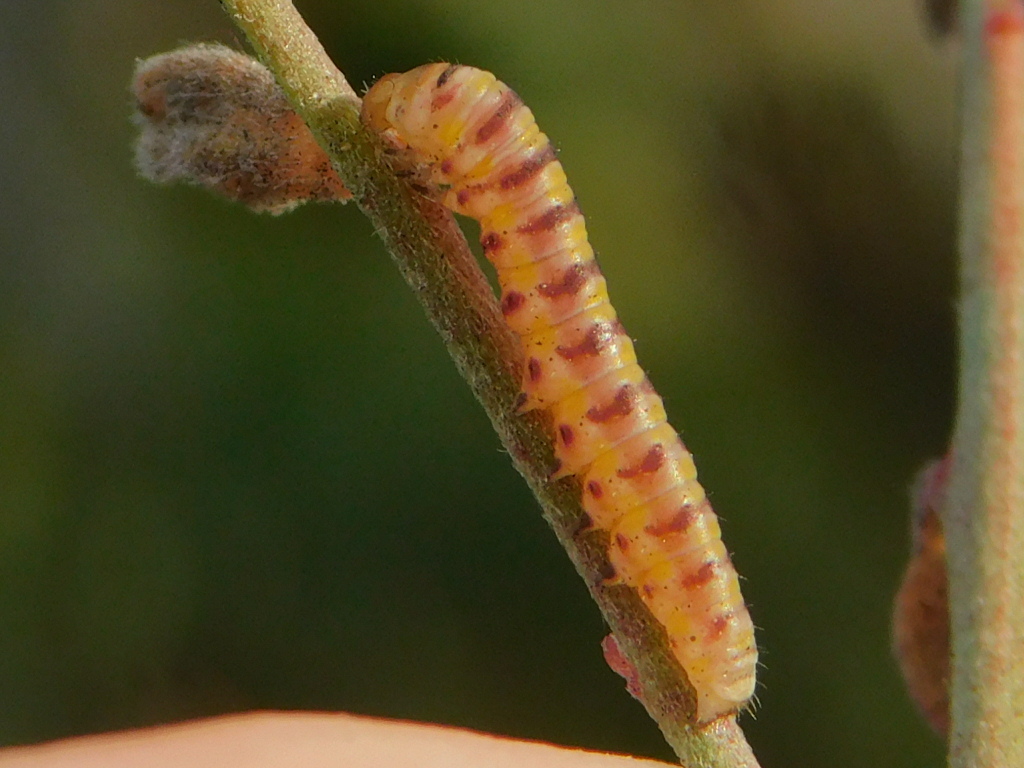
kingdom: Animalia
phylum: Arthropoda
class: Insecta
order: Lepidoptera
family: Noctuidae
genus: Schinia
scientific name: Schinia gaurae
